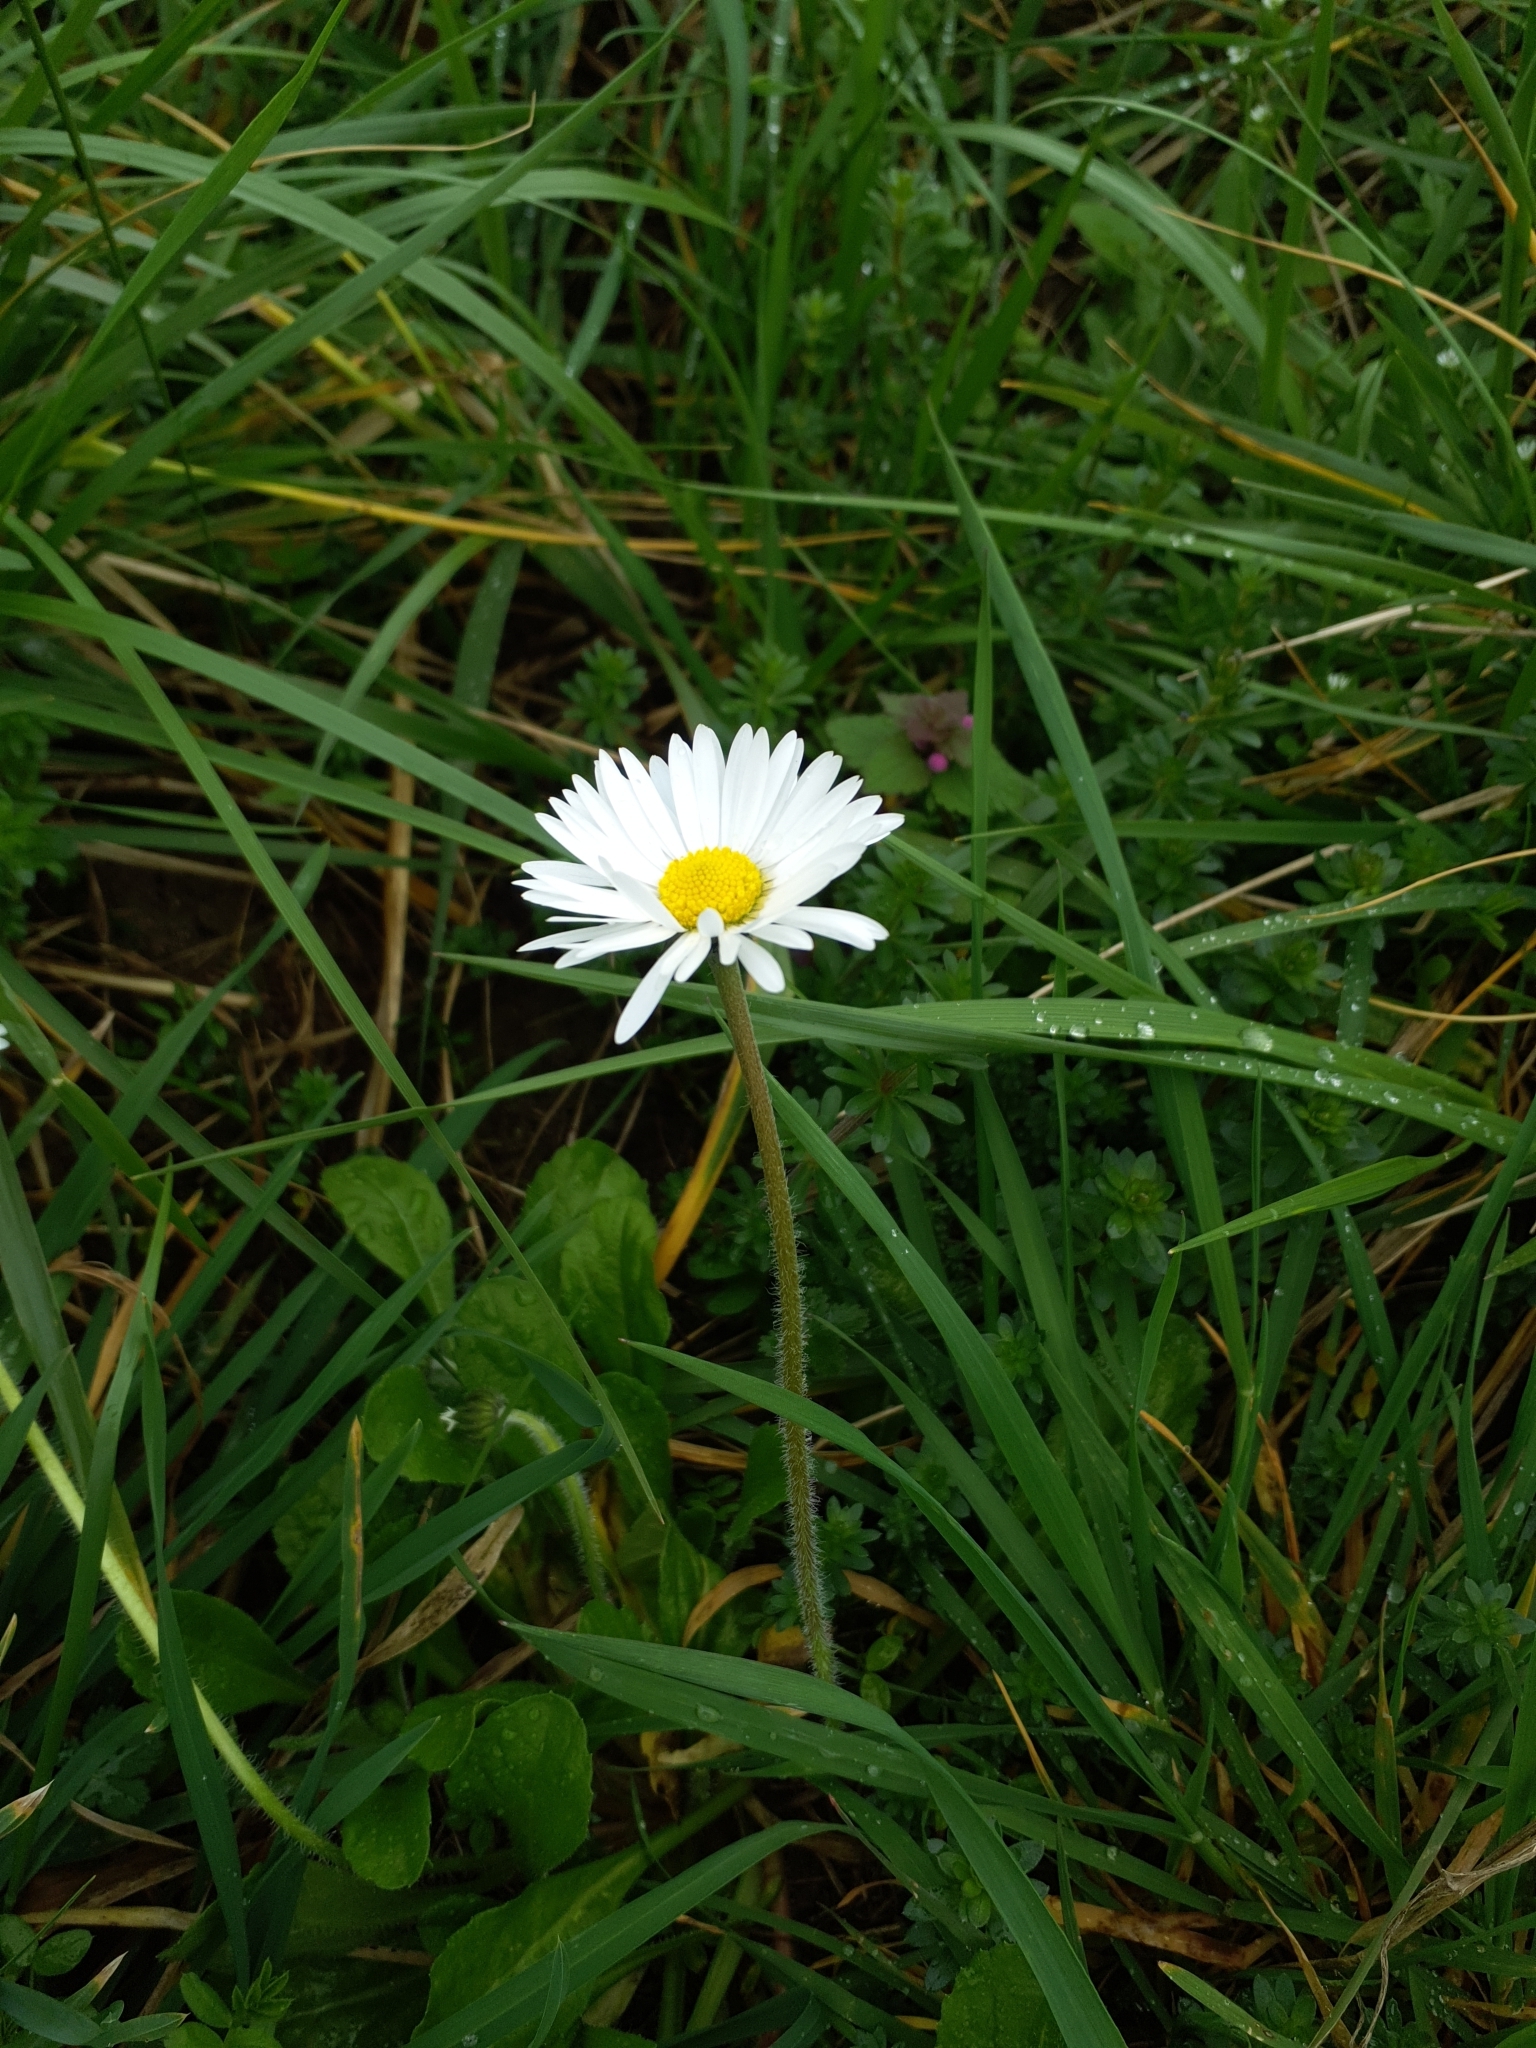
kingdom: Plantae
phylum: Tracheophyta
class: Magnoliopsida
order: Asterales
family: Asteraceae
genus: Bellis
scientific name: Bellis perennis
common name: Lawndaisy
